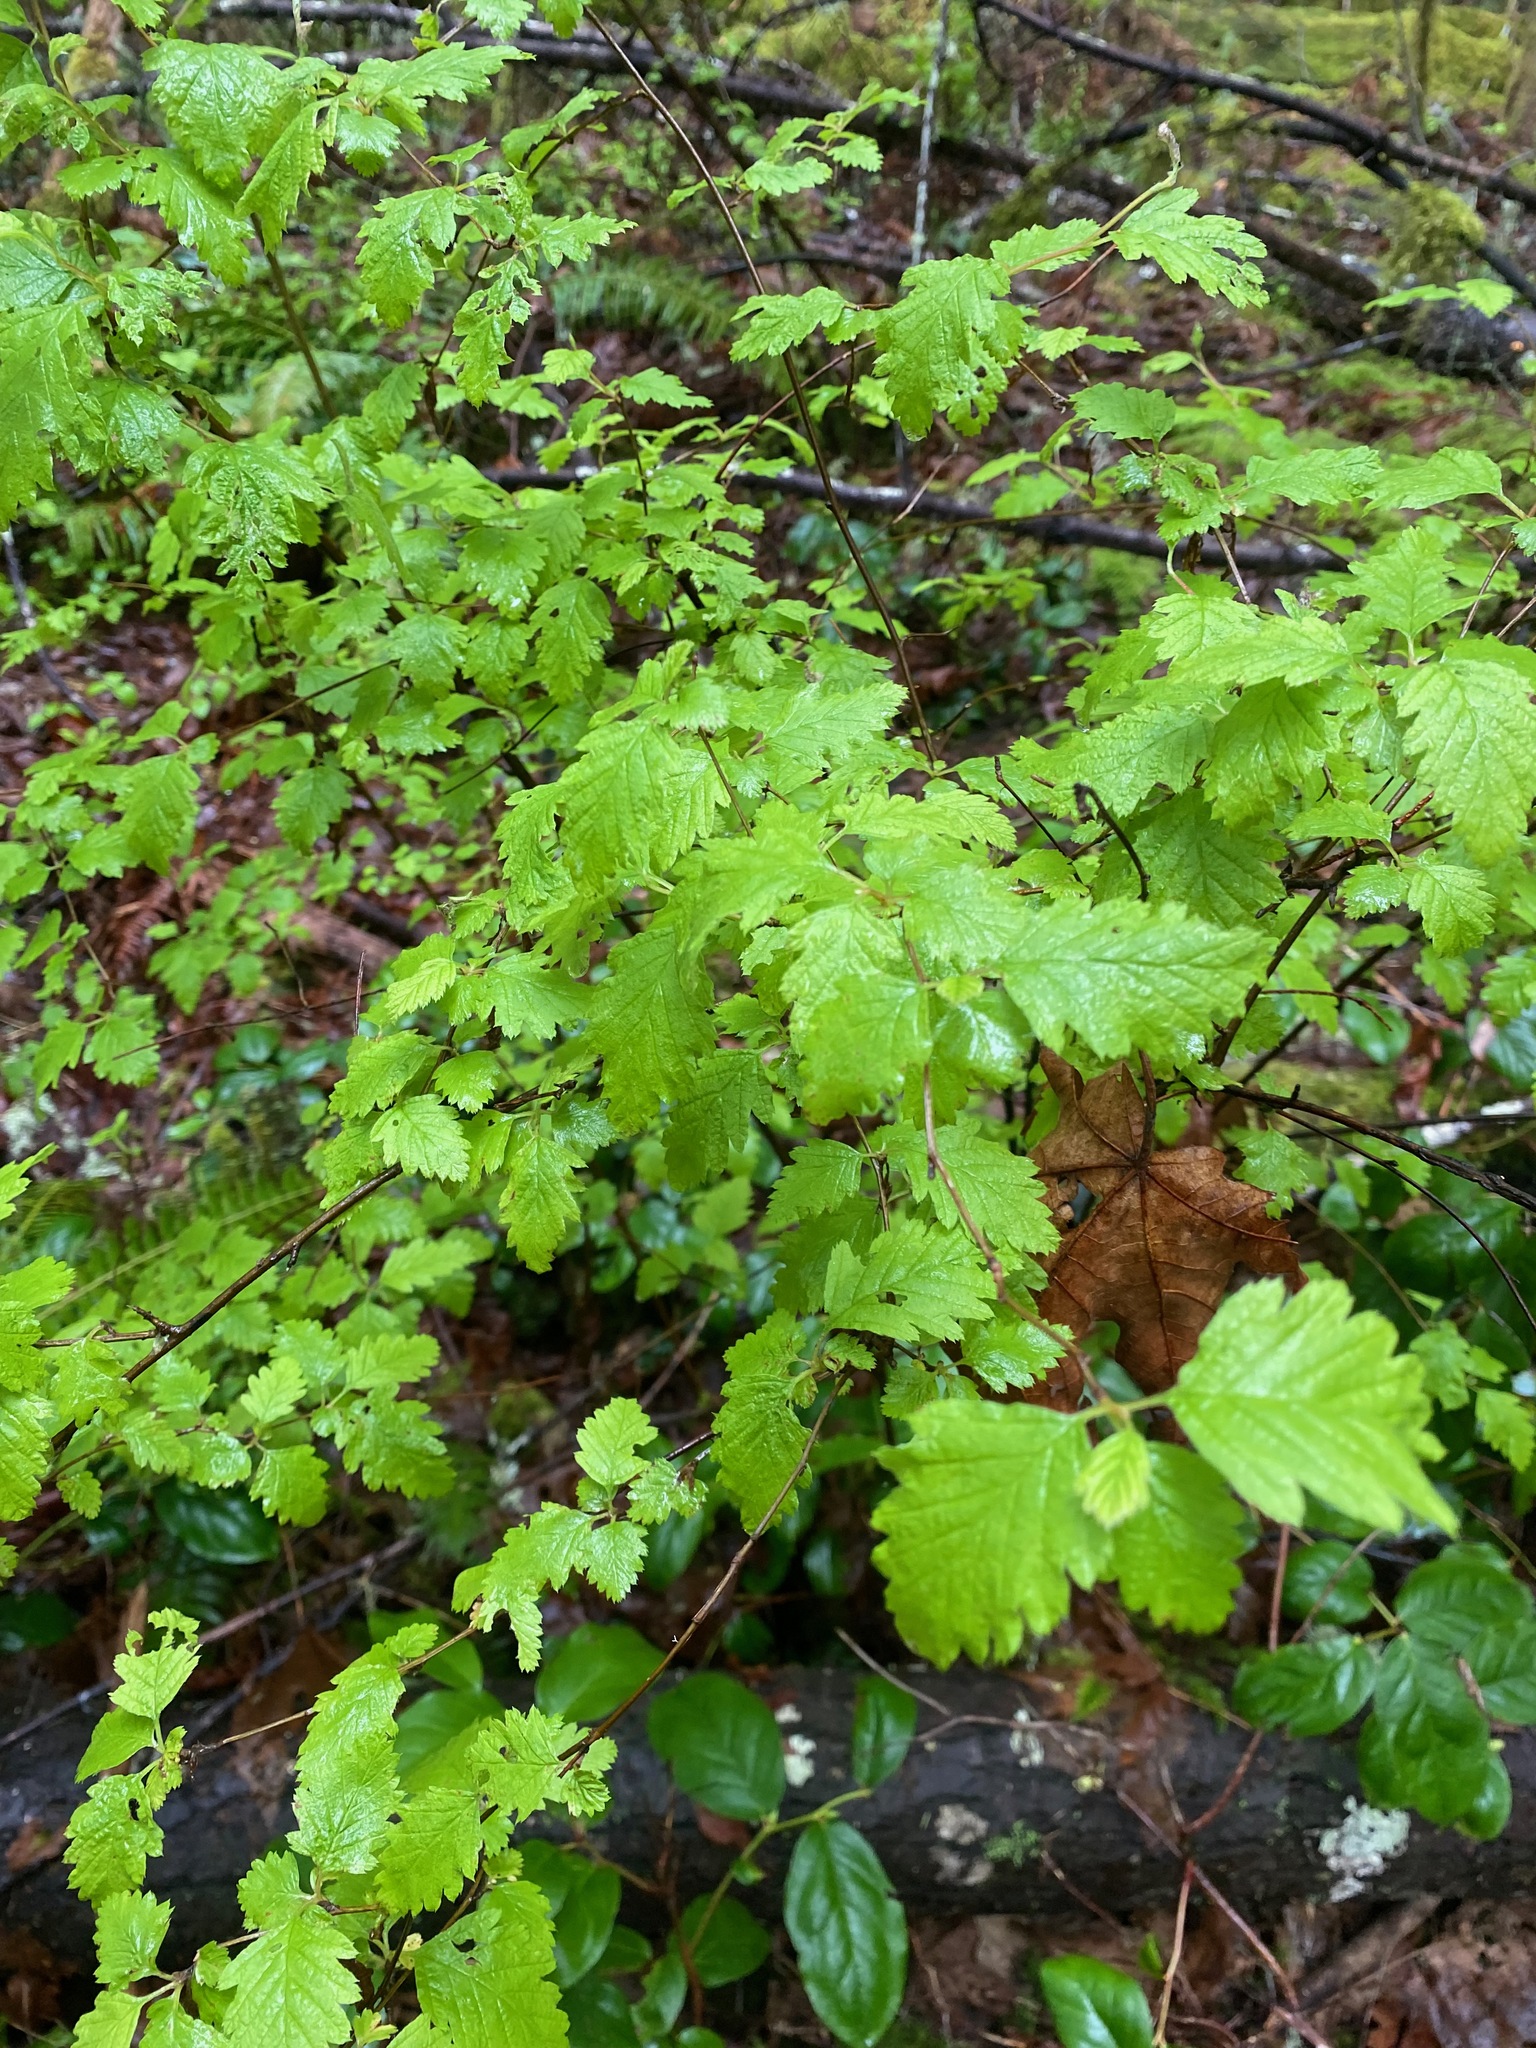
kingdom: Plantae
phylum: Tracheophyta
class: Magnoliopsida
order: Rosales
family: Rosaceae
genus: Holodiscus
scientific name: Holodiscus discolor
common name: Oceanspray
